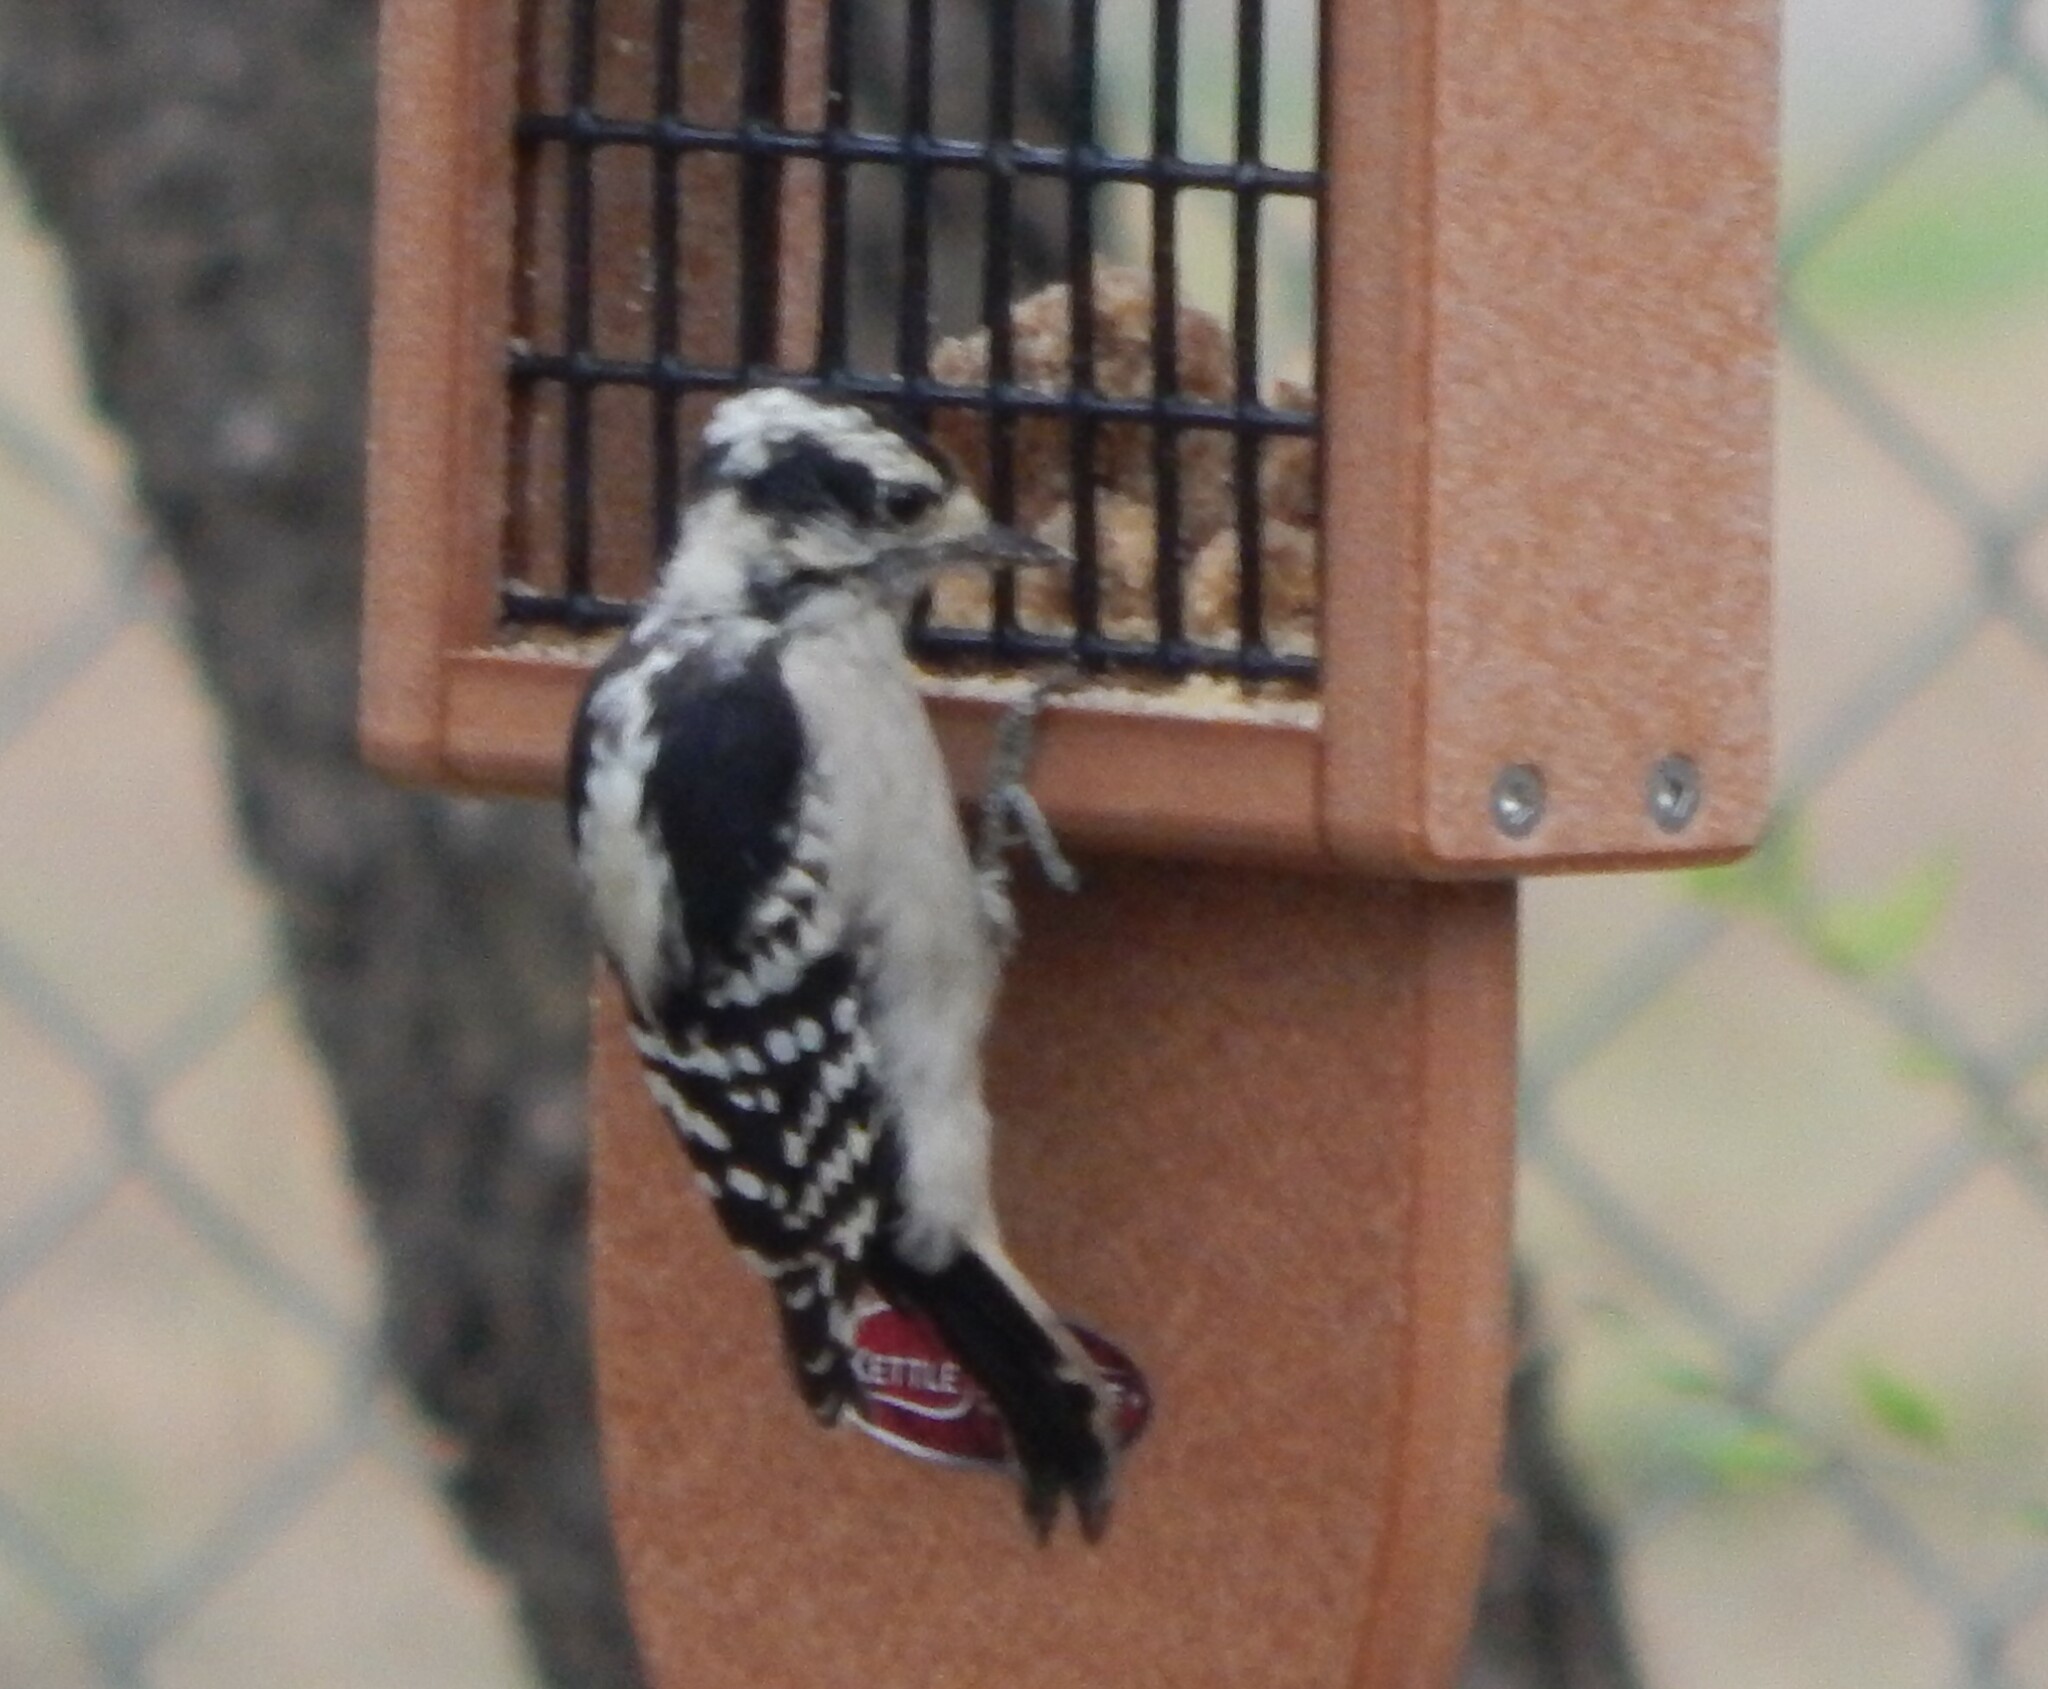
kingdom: Animalia
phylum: Chordata
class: Aves
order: Piciformes
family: Picidae
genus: Dryobates
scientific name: Dryobates pubescens
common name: Downy woodpecker
